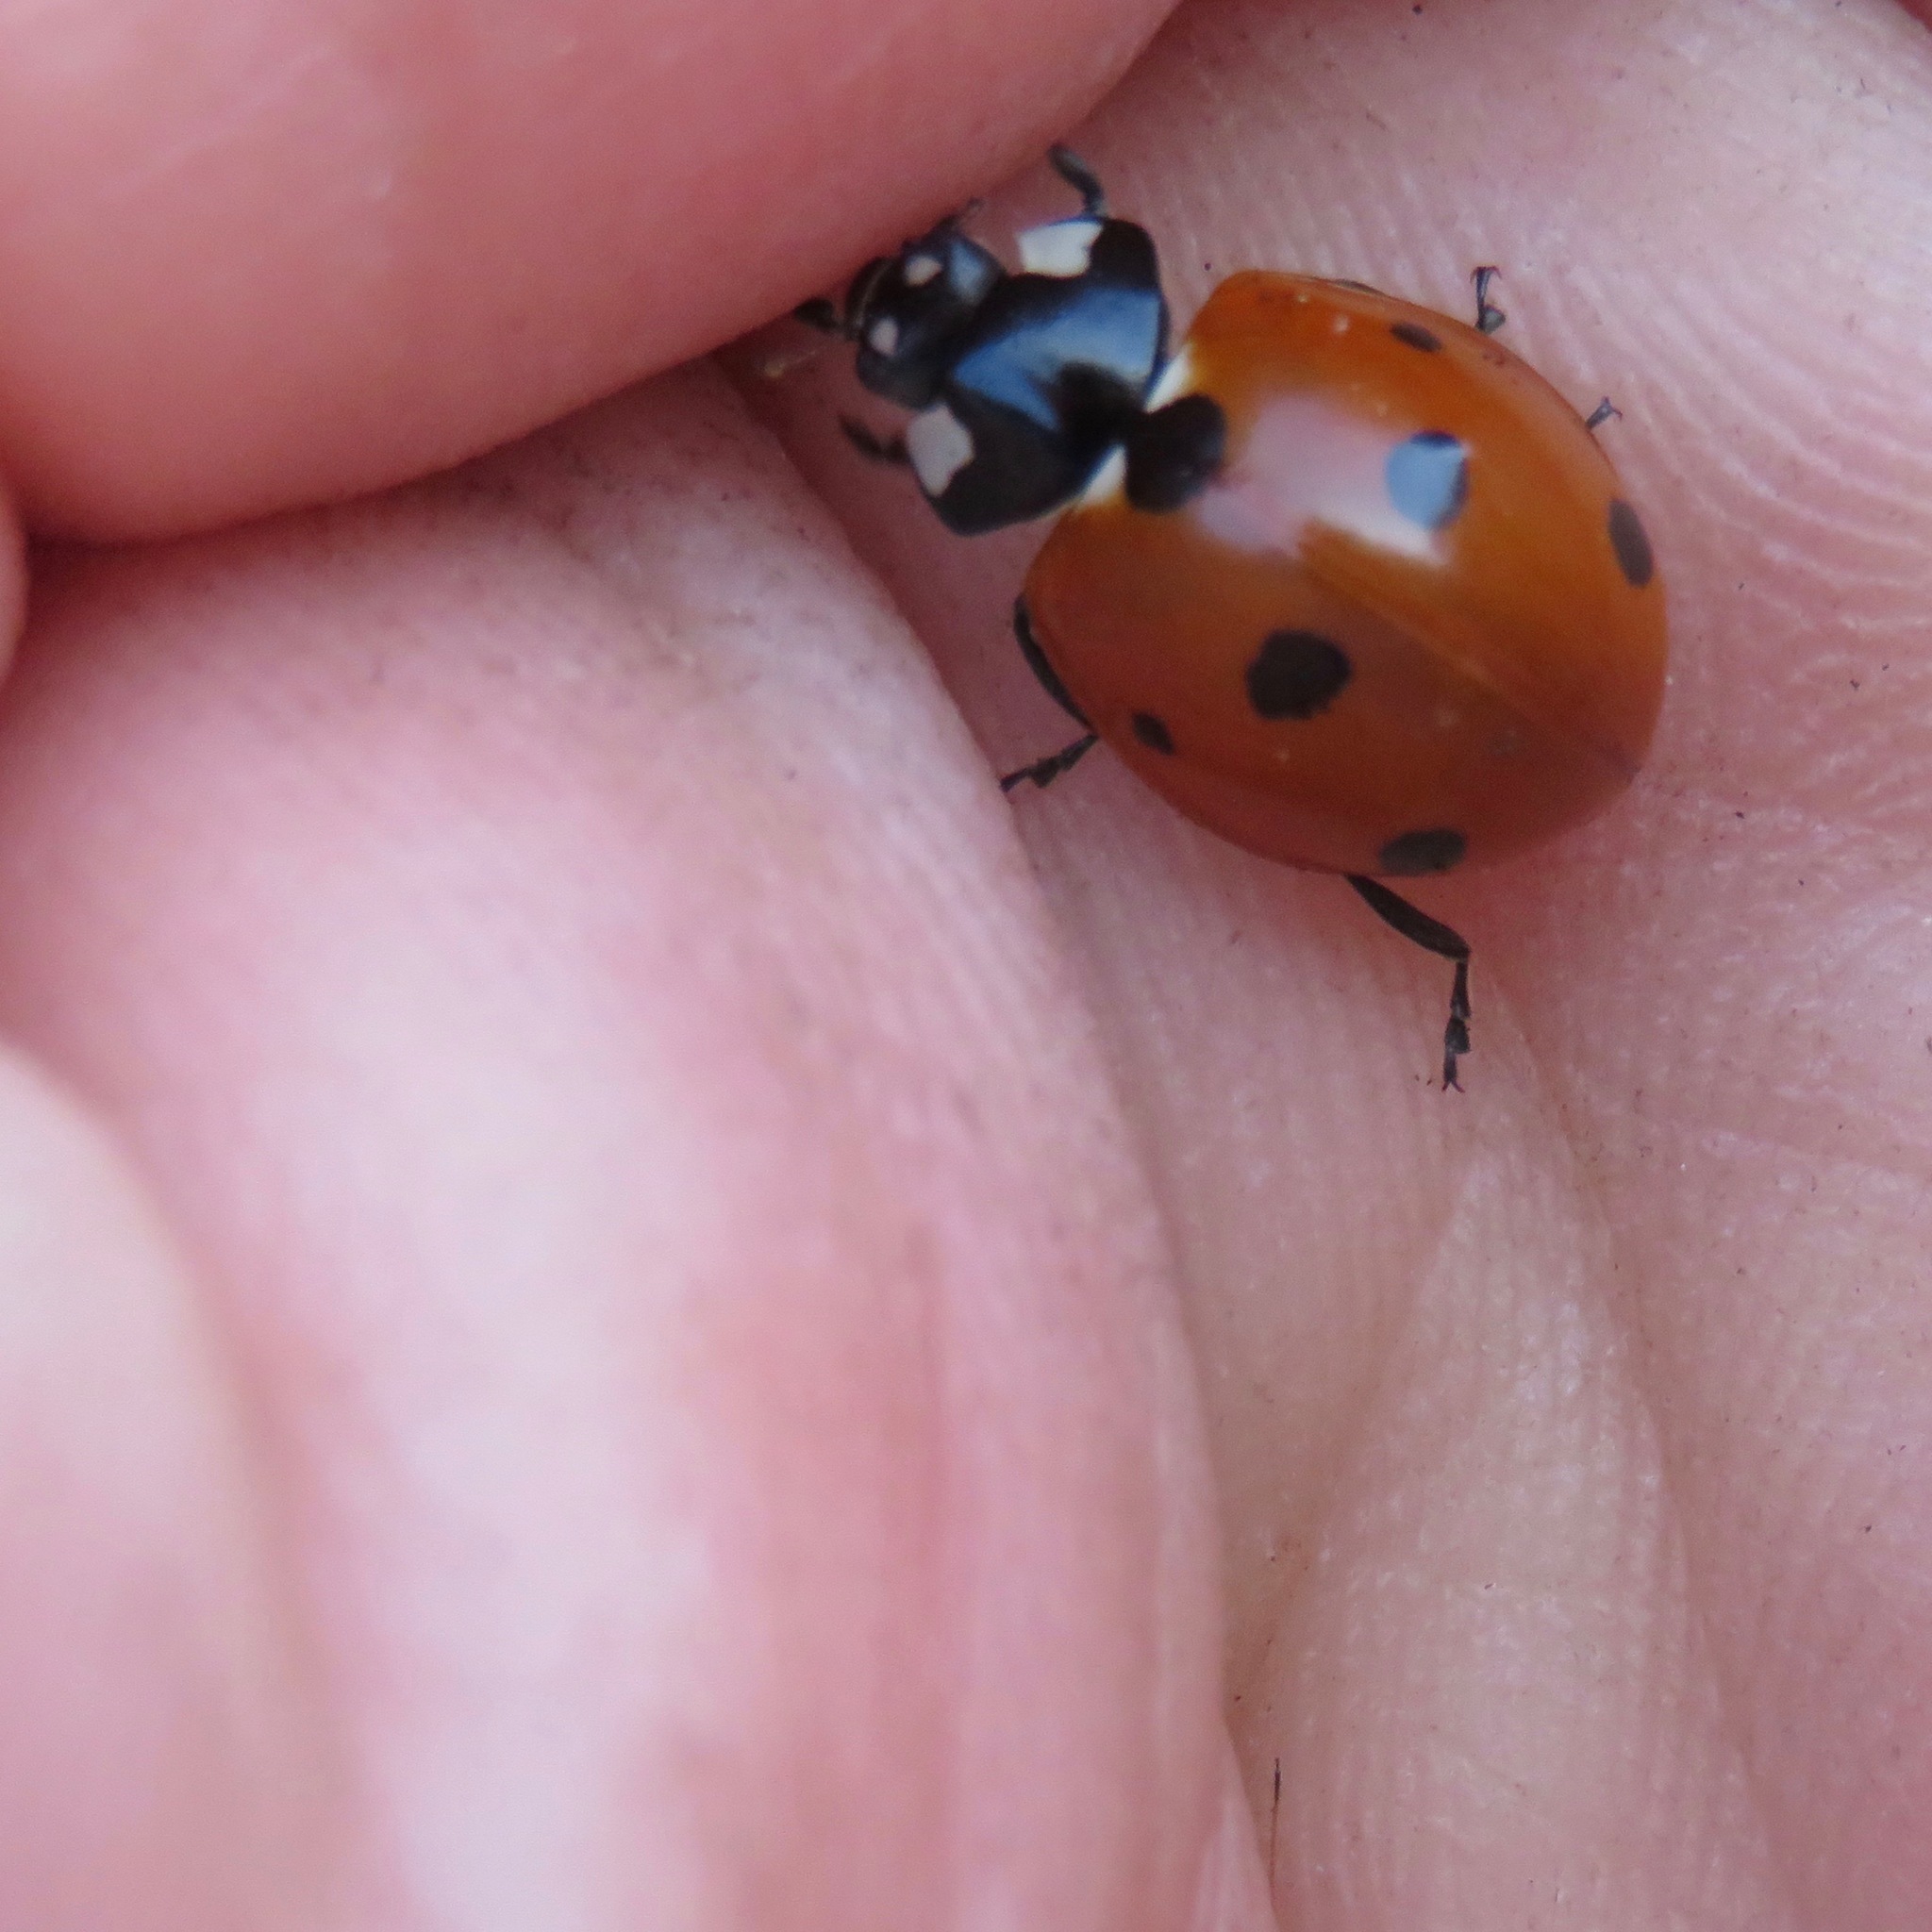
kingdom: Animalia
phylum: Arthropoda
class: Insecta
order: Coleoptera
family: Coccinellidae
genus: Coccinella
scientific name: Coccinella septempunctata
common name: Sevenspotted lady beetle
